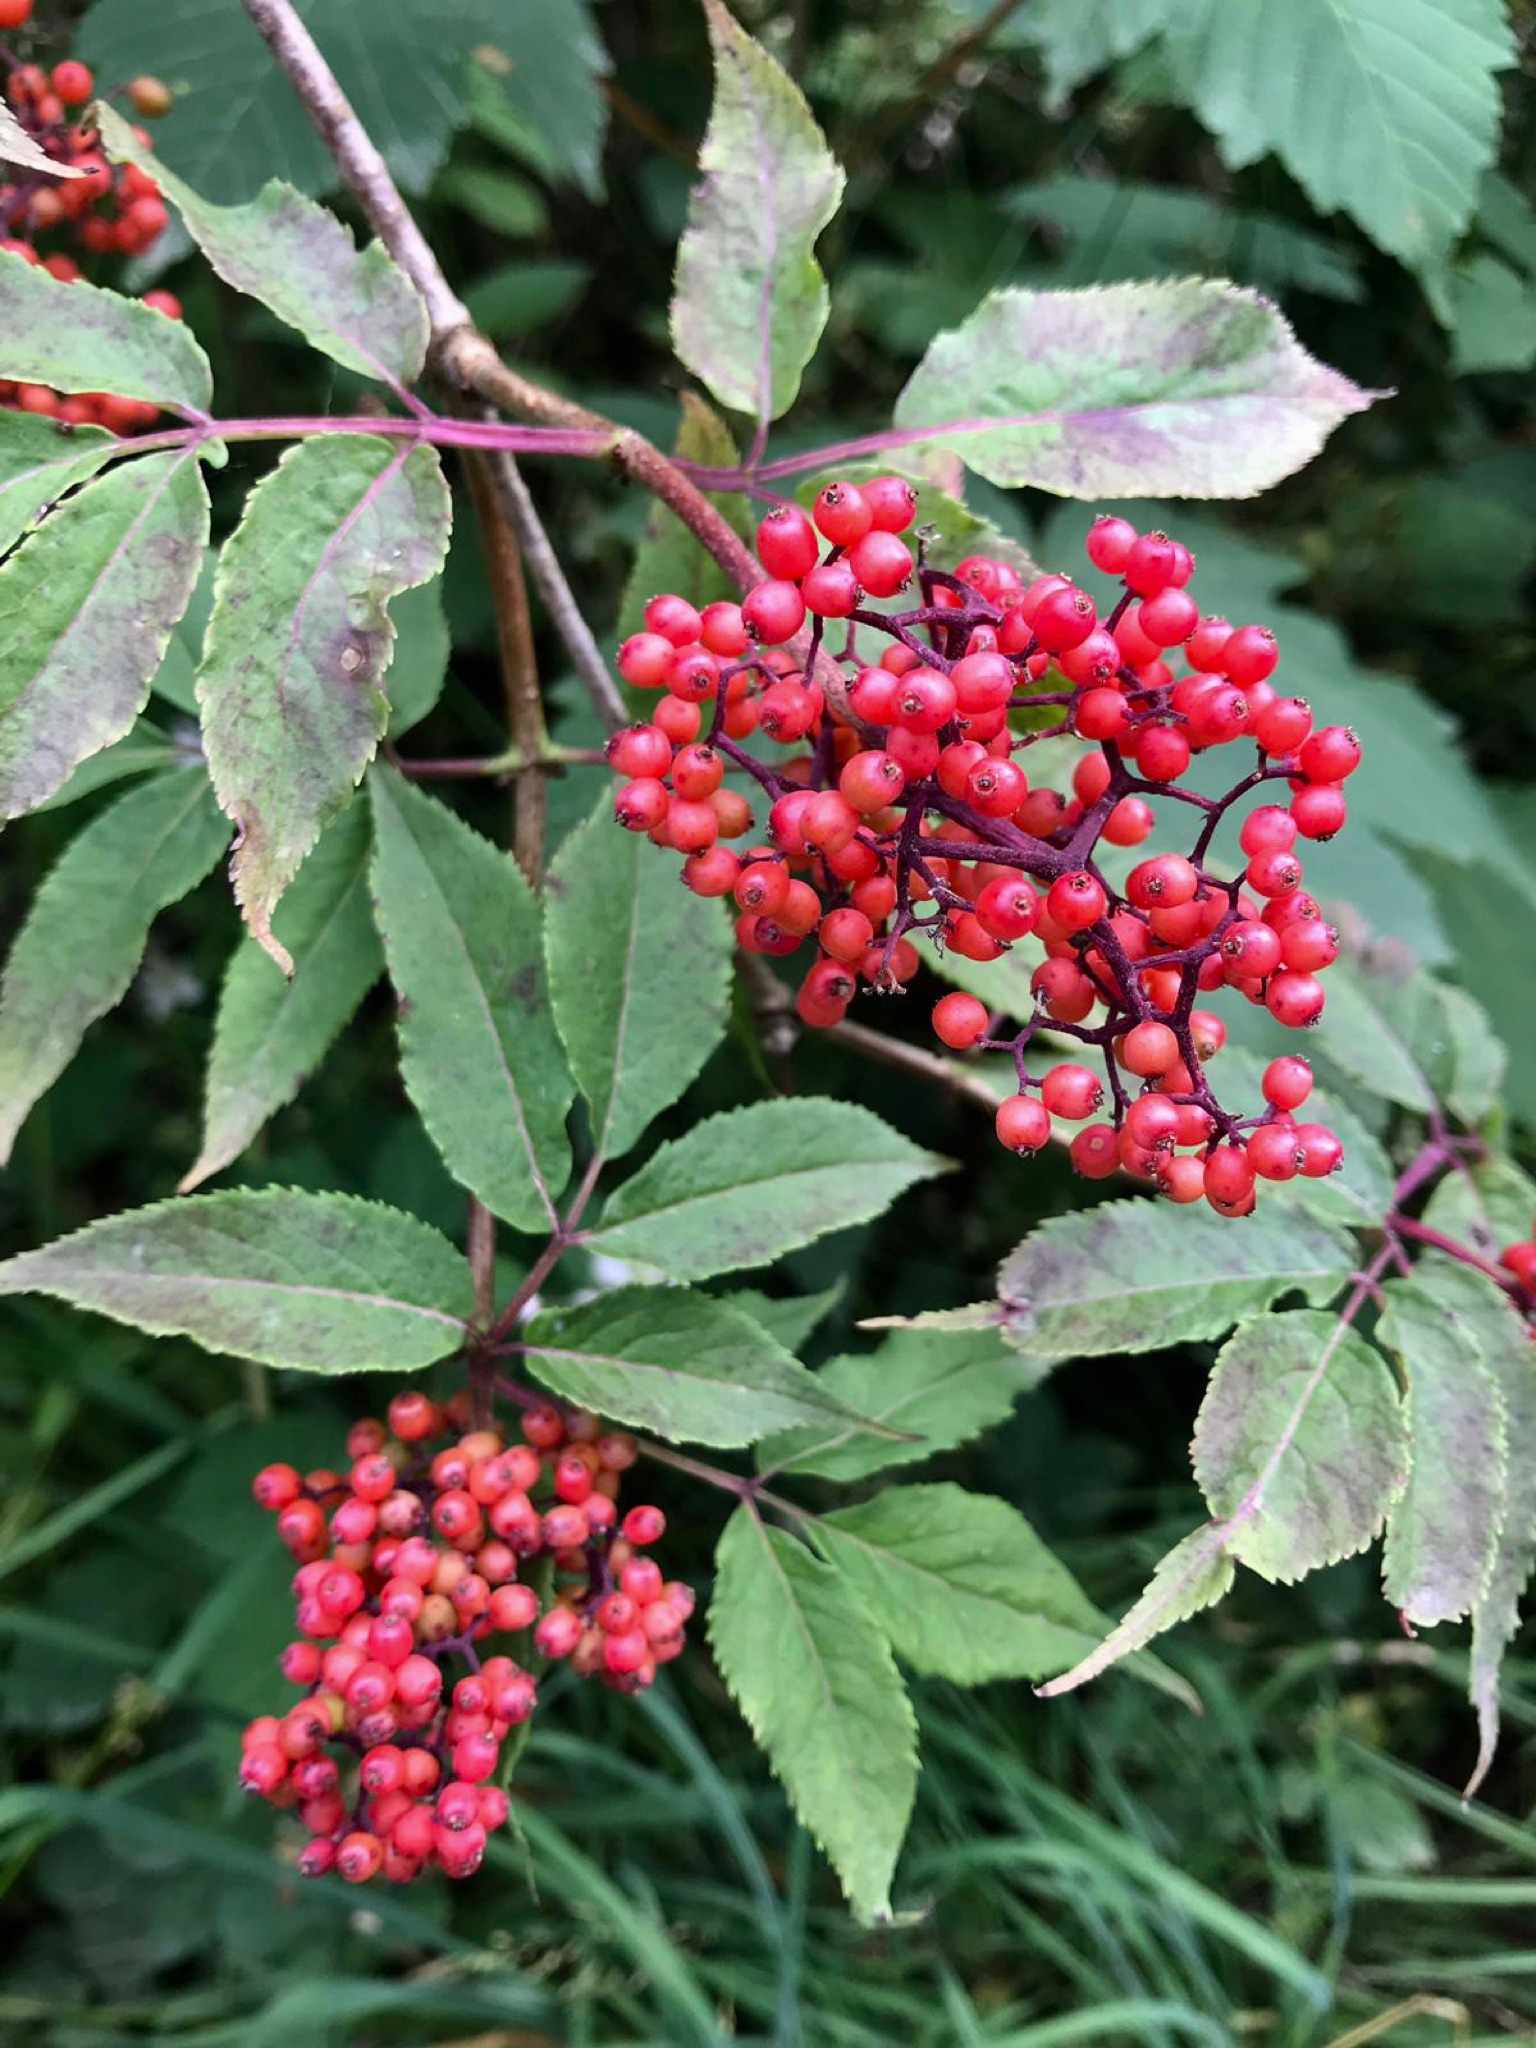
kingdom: Plantae
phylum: Tracheophyta
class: Magnoliopsida
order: Dipsacales
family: Viburnaceae
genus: Sambucus
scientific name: Sambucus racemosa
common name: Red-berried elder
